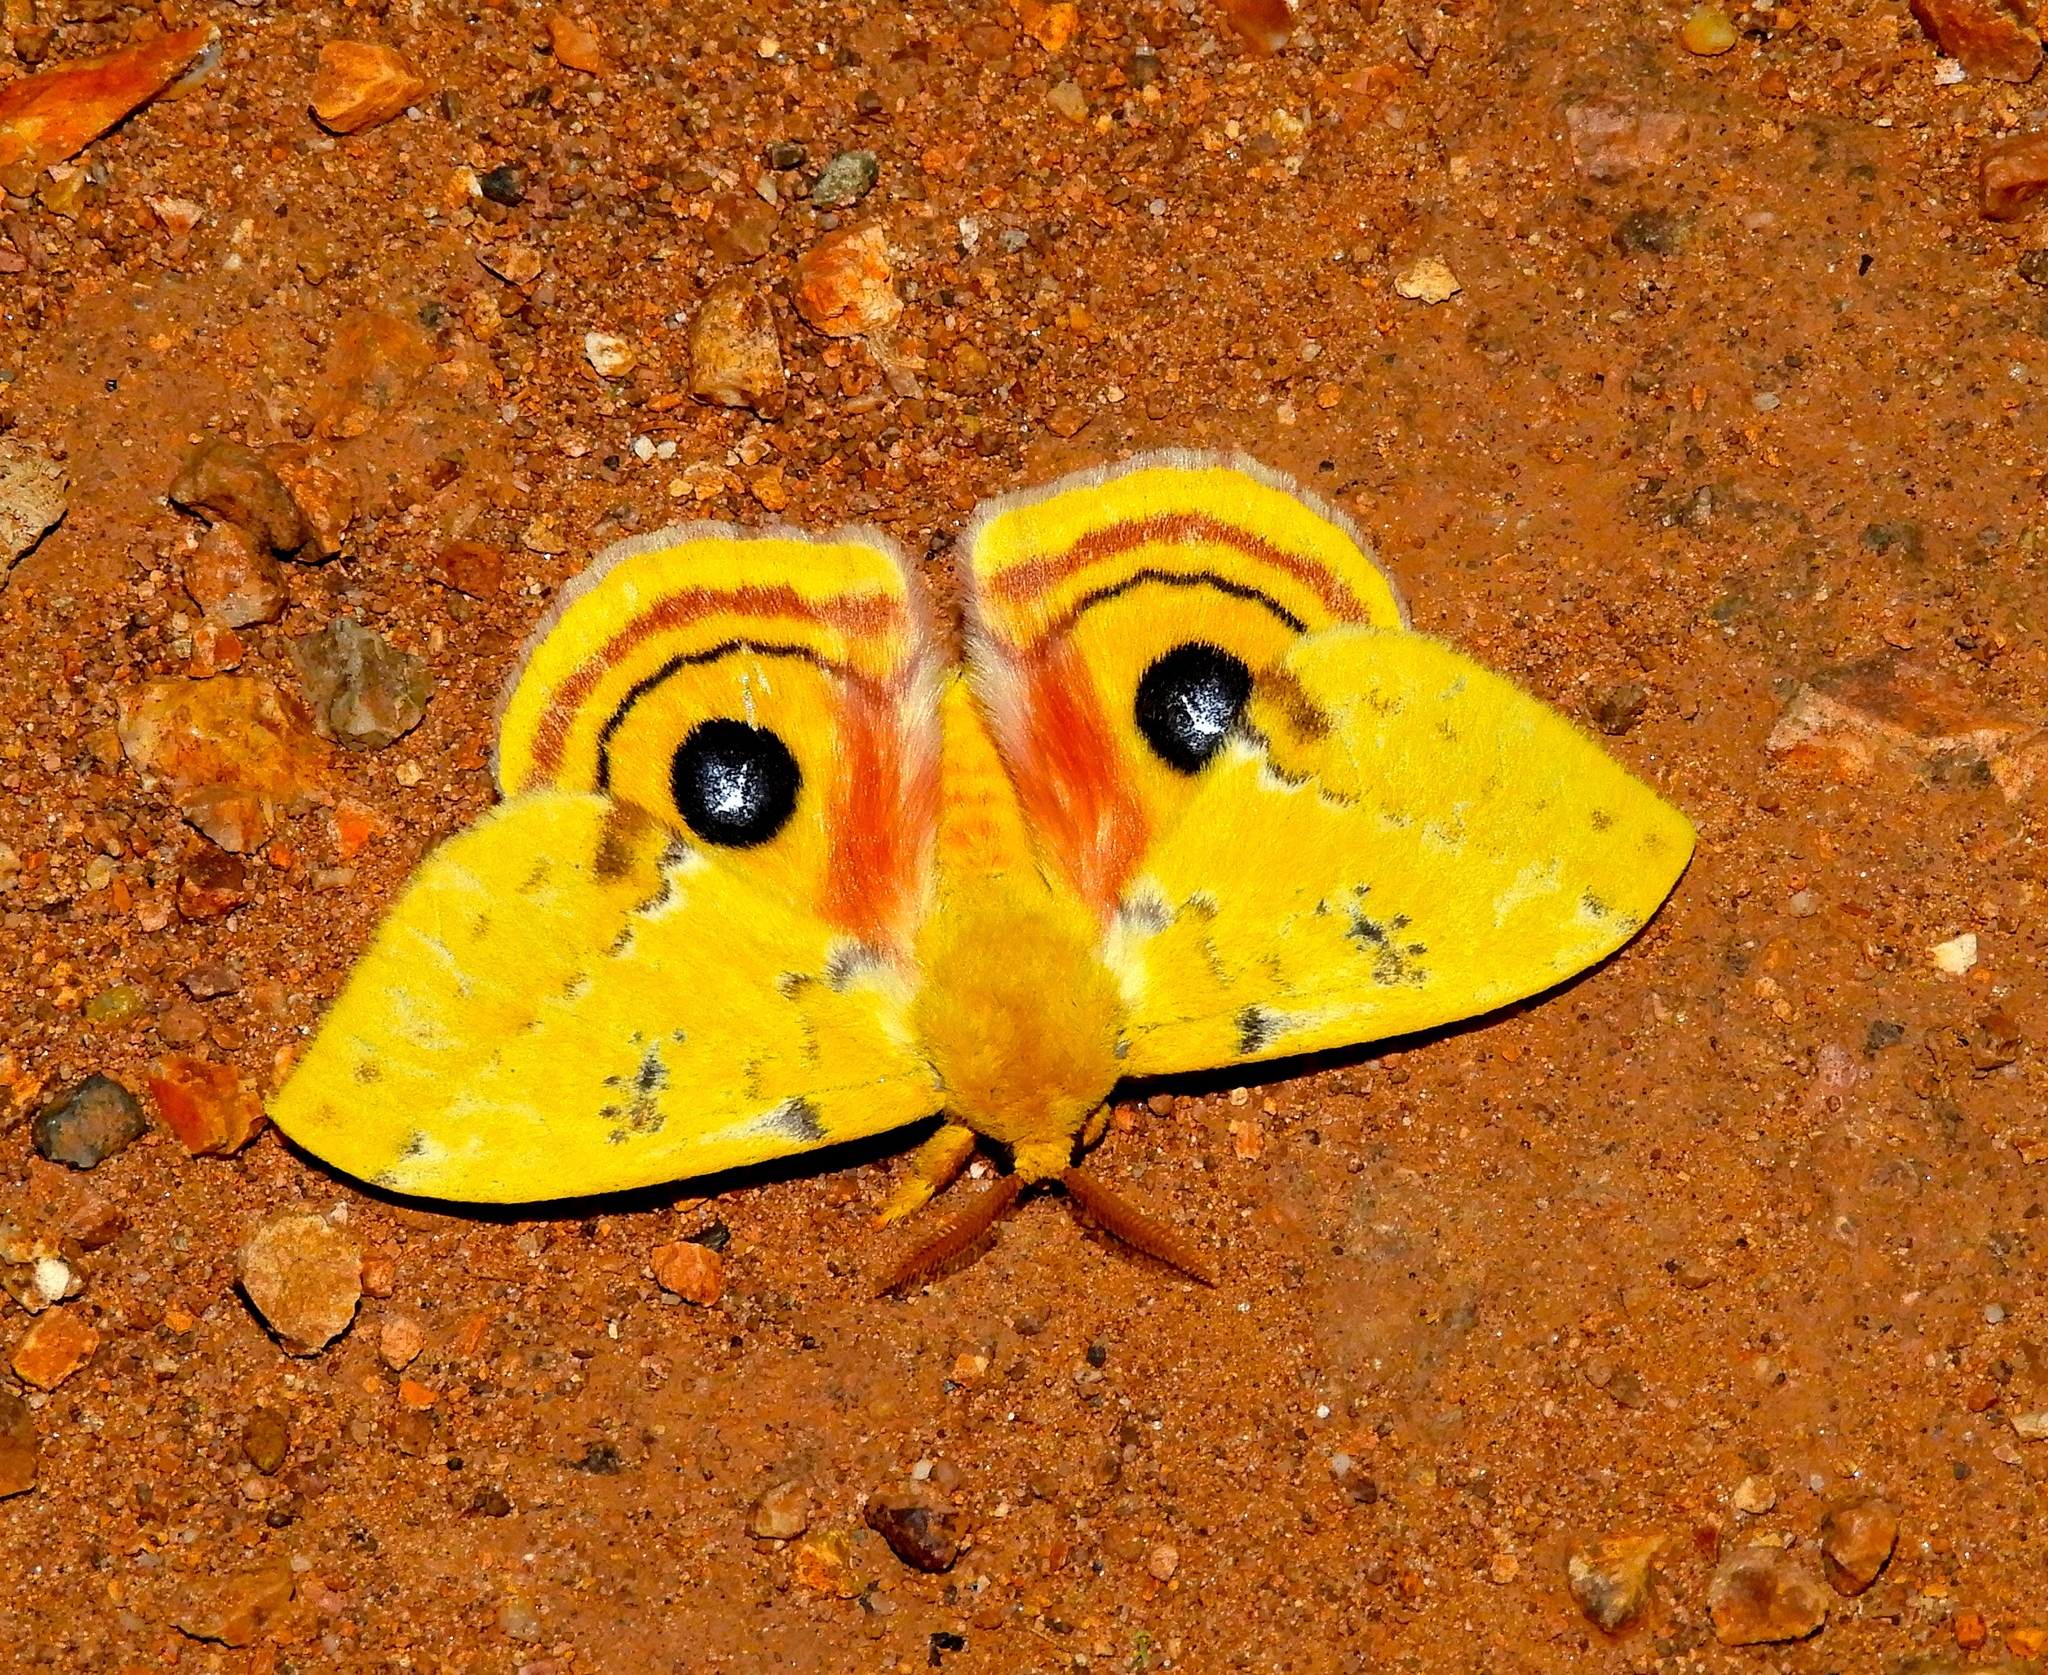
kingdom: Animalia
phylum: Arthropoda
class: Insecta
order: Lepidoptera
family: Saturniidae
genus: Automeris
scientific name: Automeris io
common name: Io moth
